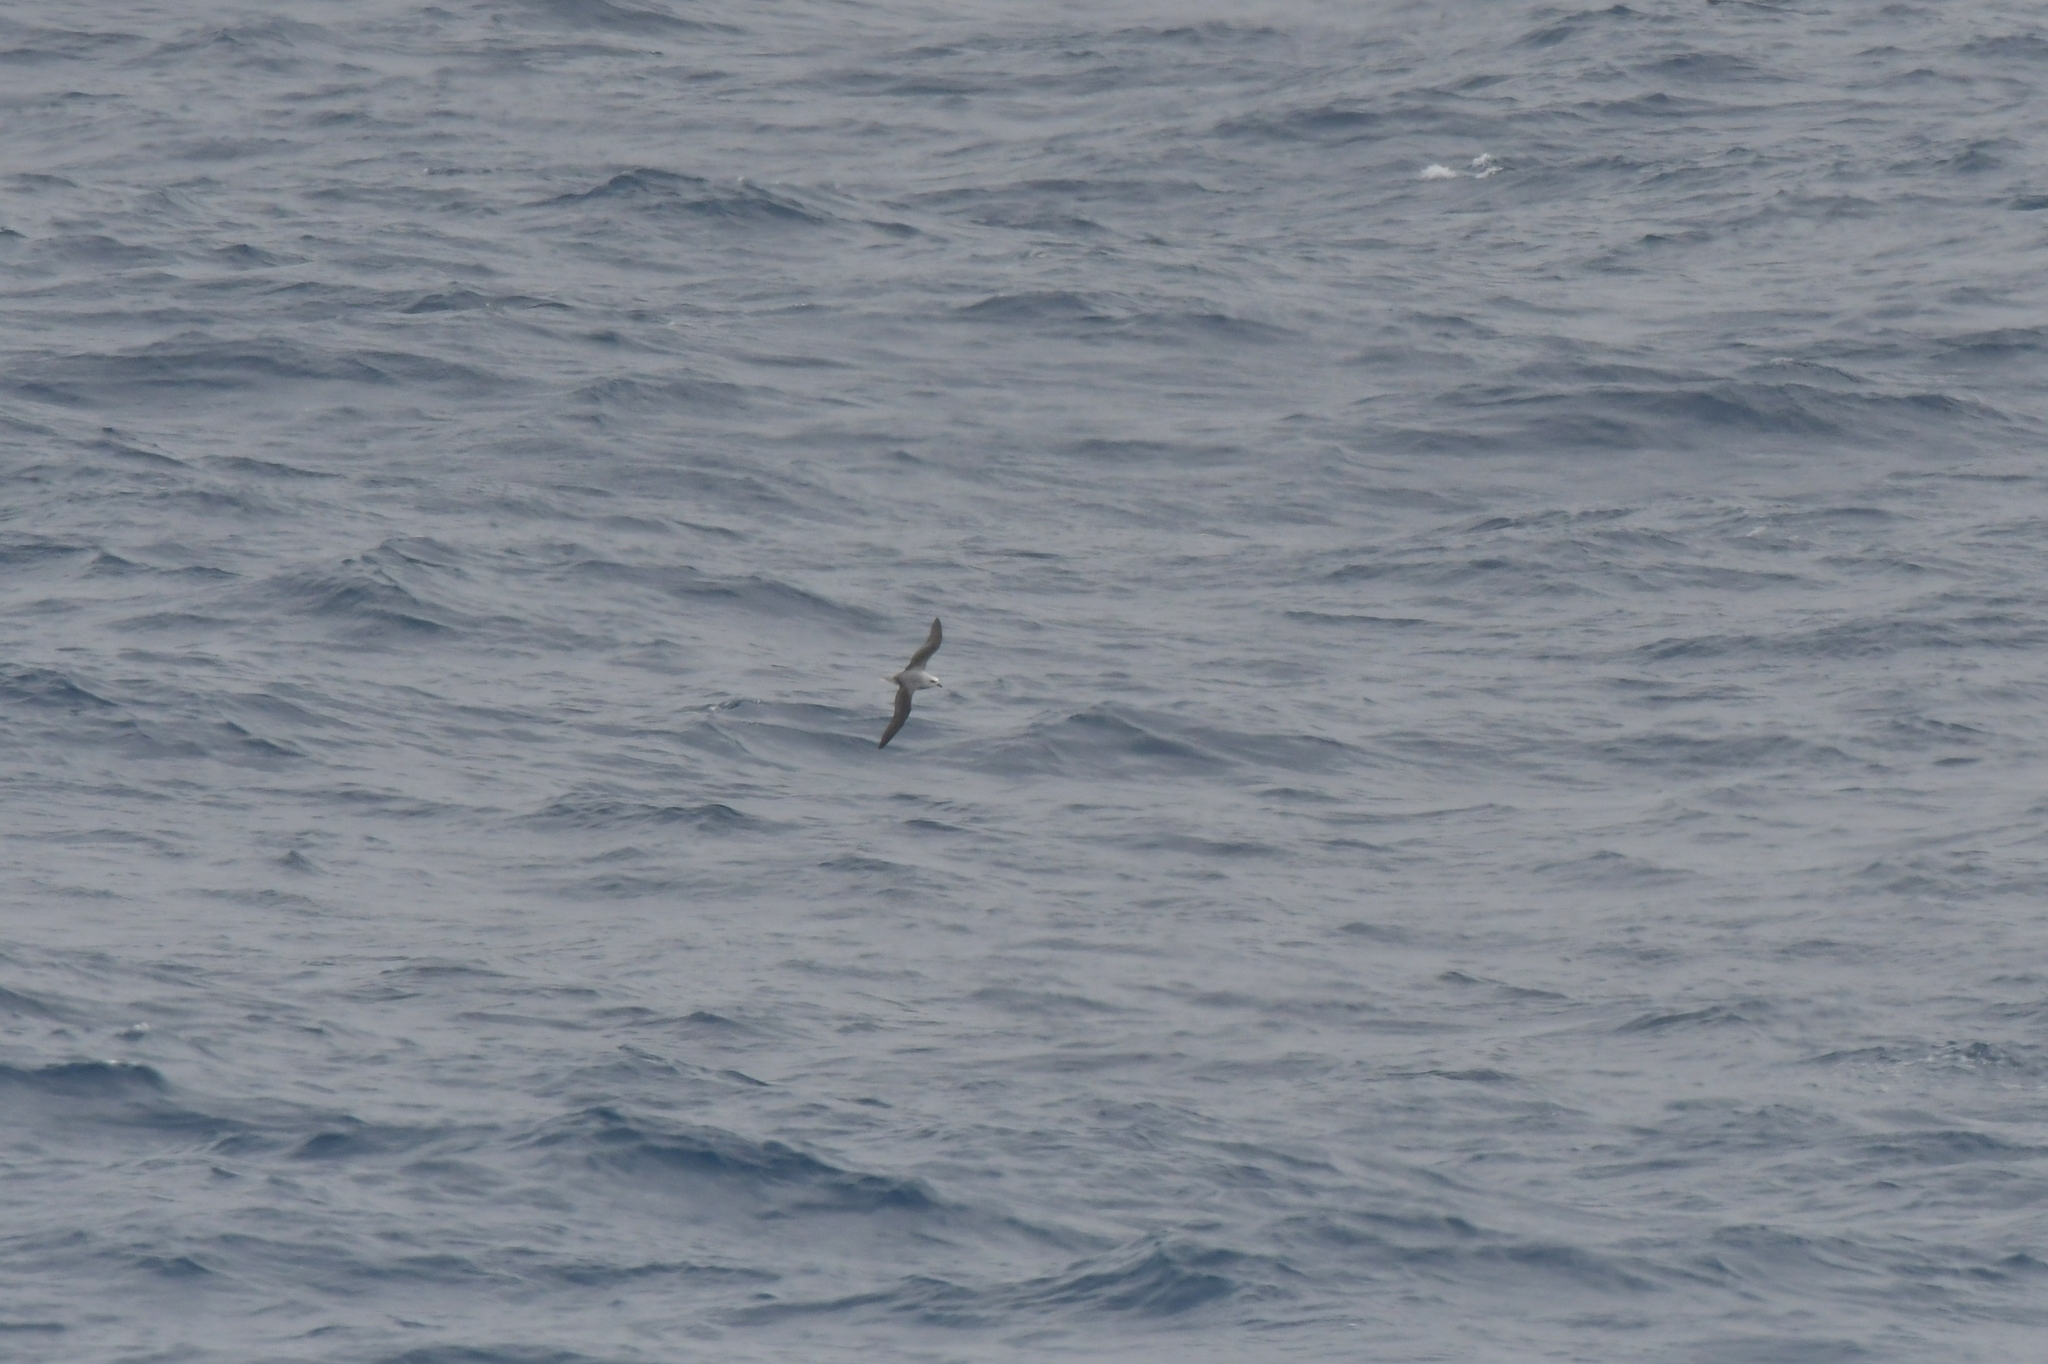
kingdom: Animalia
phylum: Chordata
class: Aves
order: Procellariiformes
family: Procellariidae
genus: Pterodroma
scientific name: Pterodroma lessonii
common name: White-headed petrel
